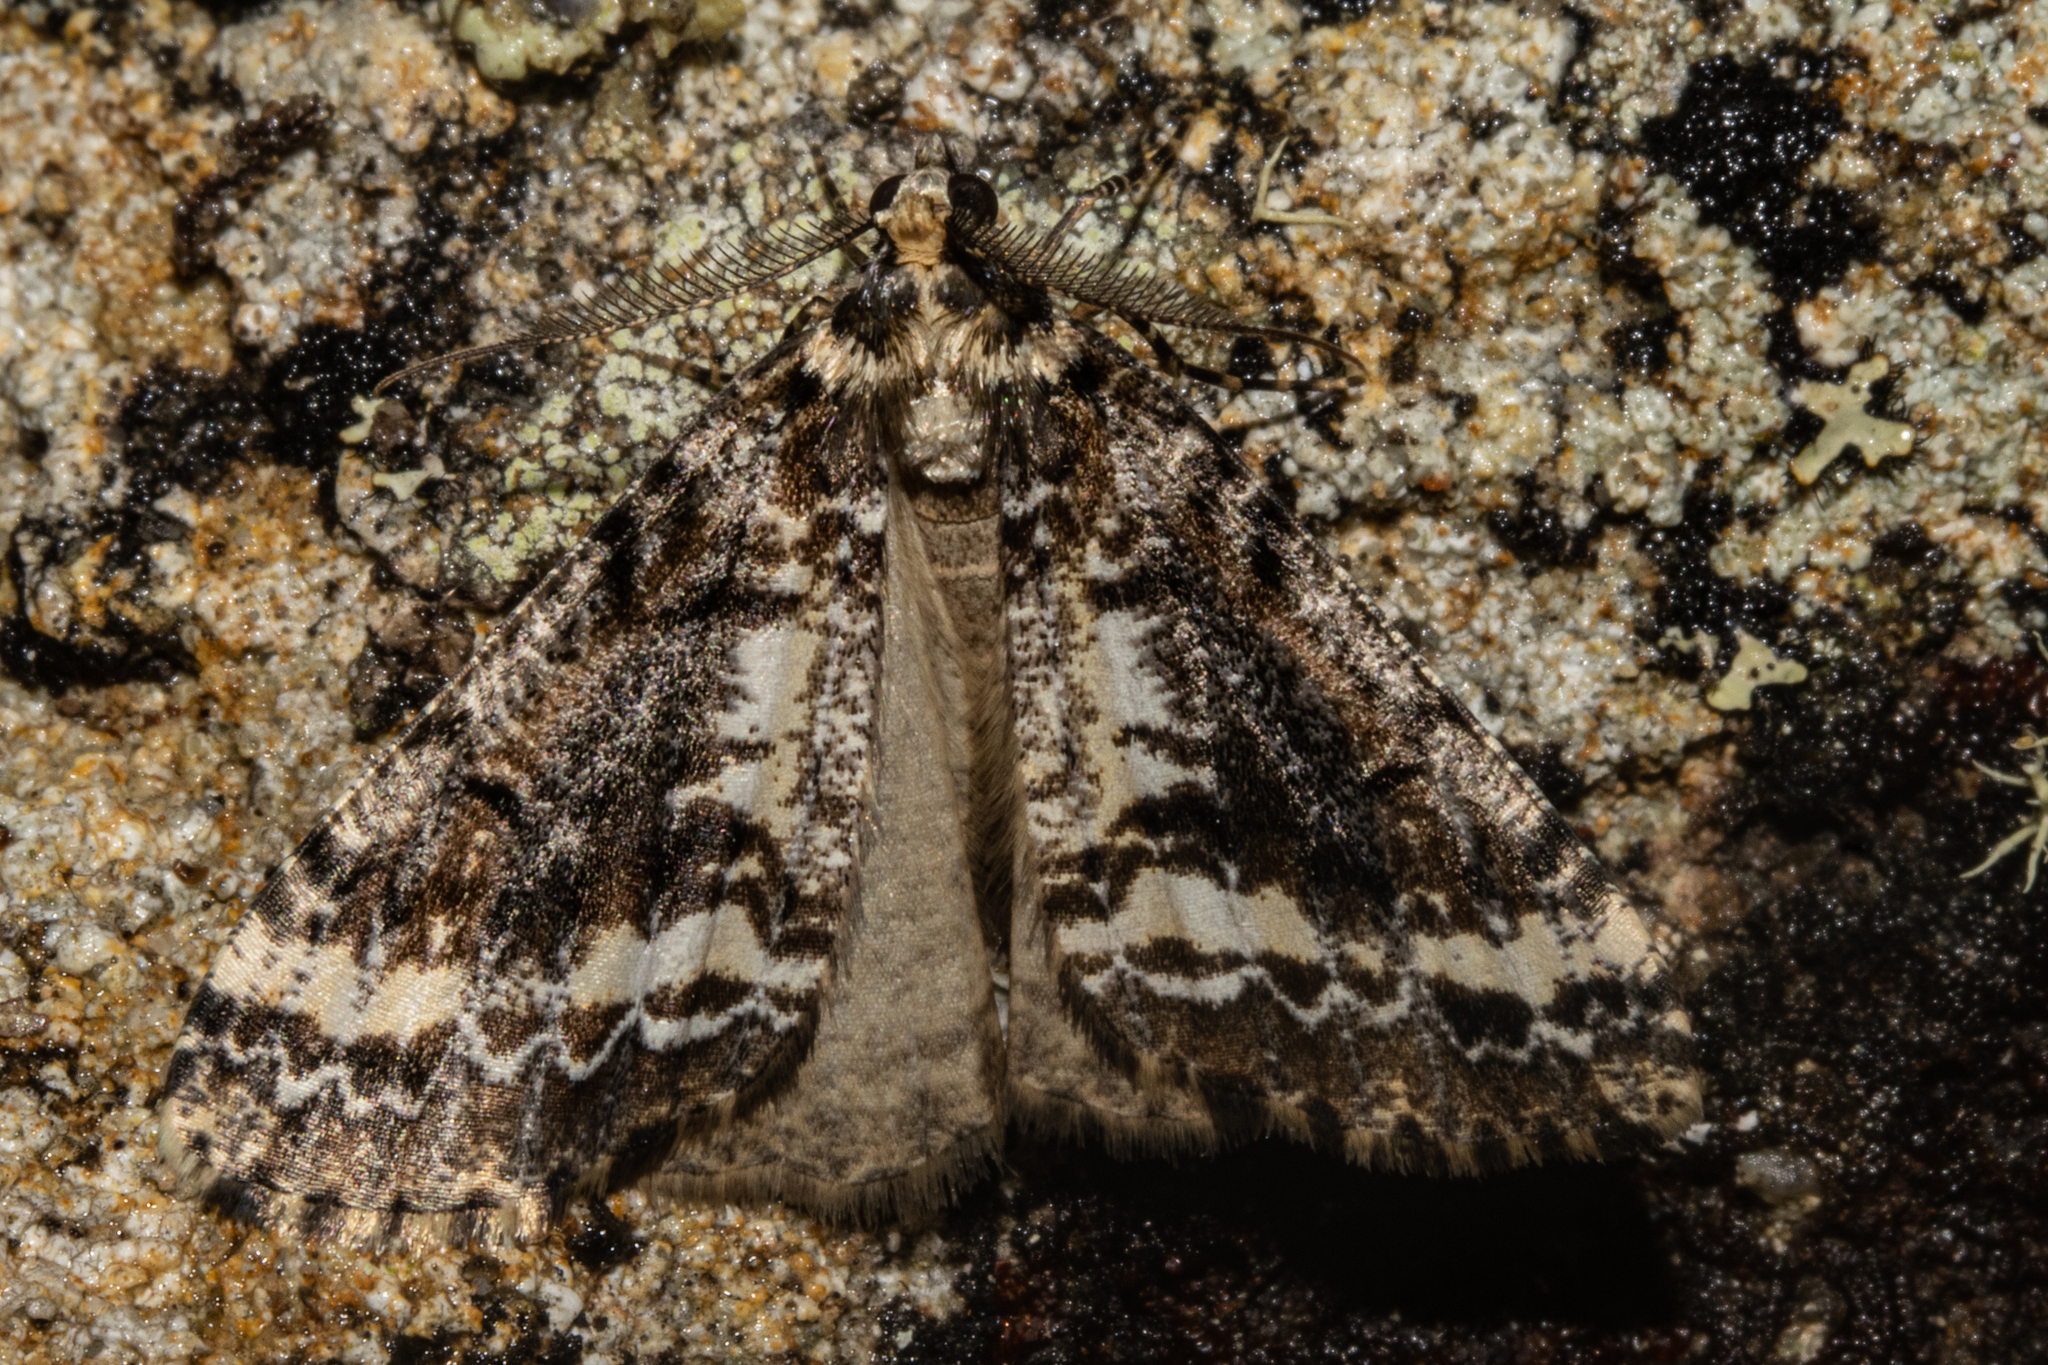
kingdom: Animalia
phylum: Arthropoda
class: Insecta
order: Lepidoptera
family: Geometridae
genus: Pseudocoremia
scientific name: Pseudocoremia leucelaea
